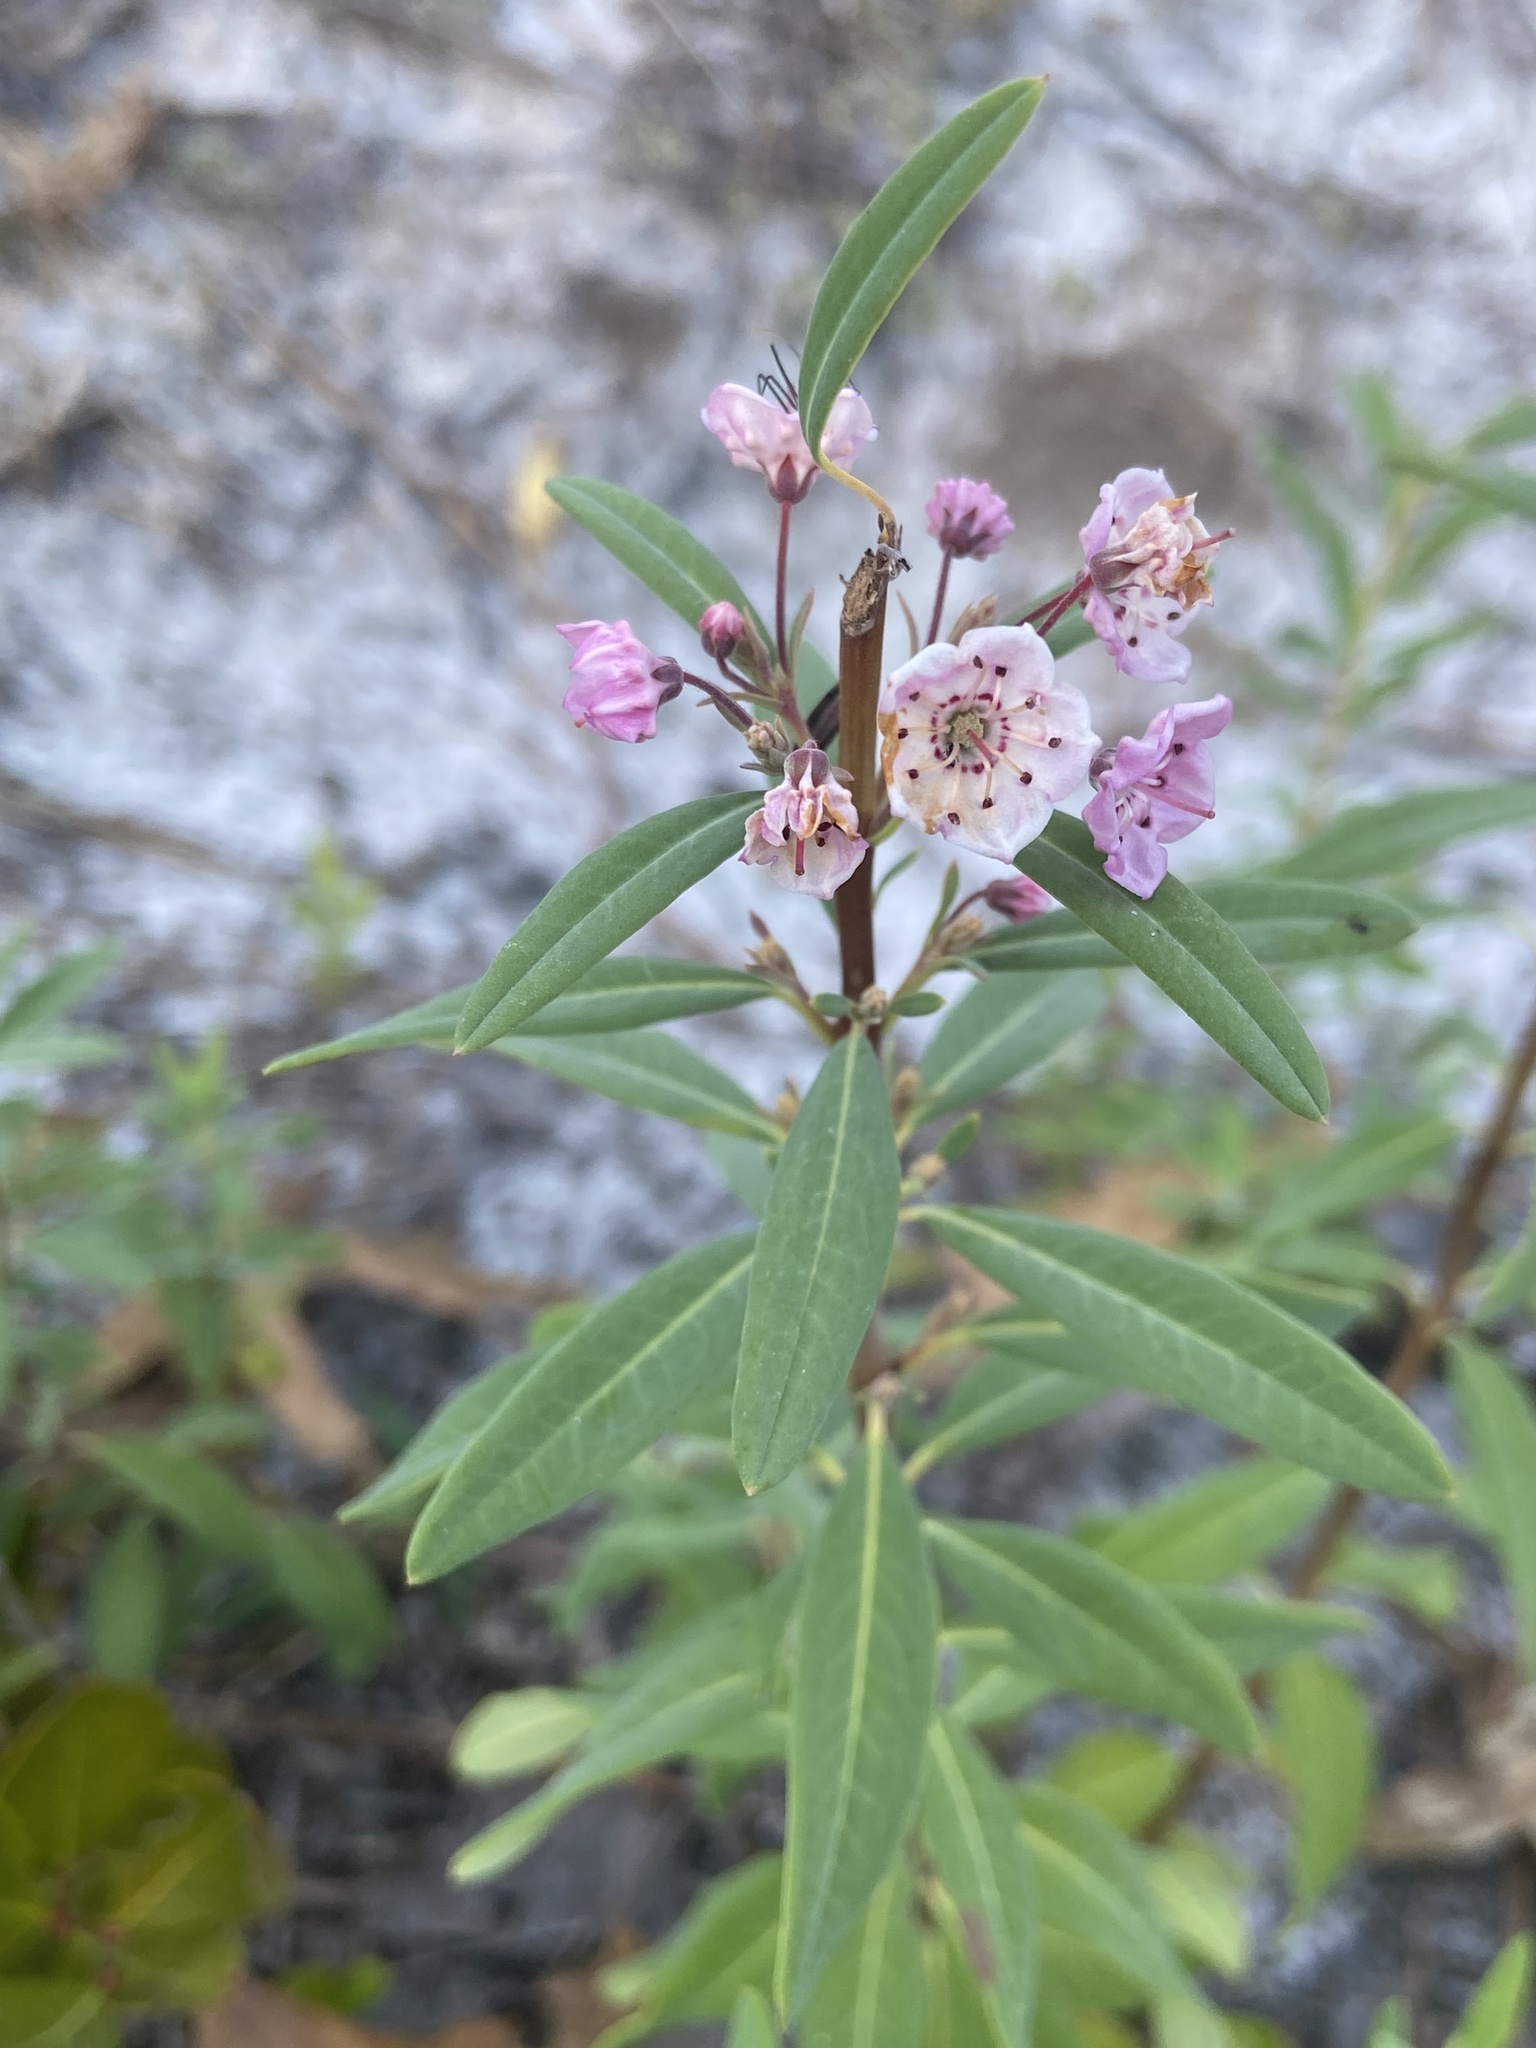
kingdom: Plantae
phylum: Tracheophyta
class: Magnoliopsida
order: Ericales
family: Ericaceae
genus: Kalmia
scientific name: Kalmia angustifolia
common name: Sheep-laurel
